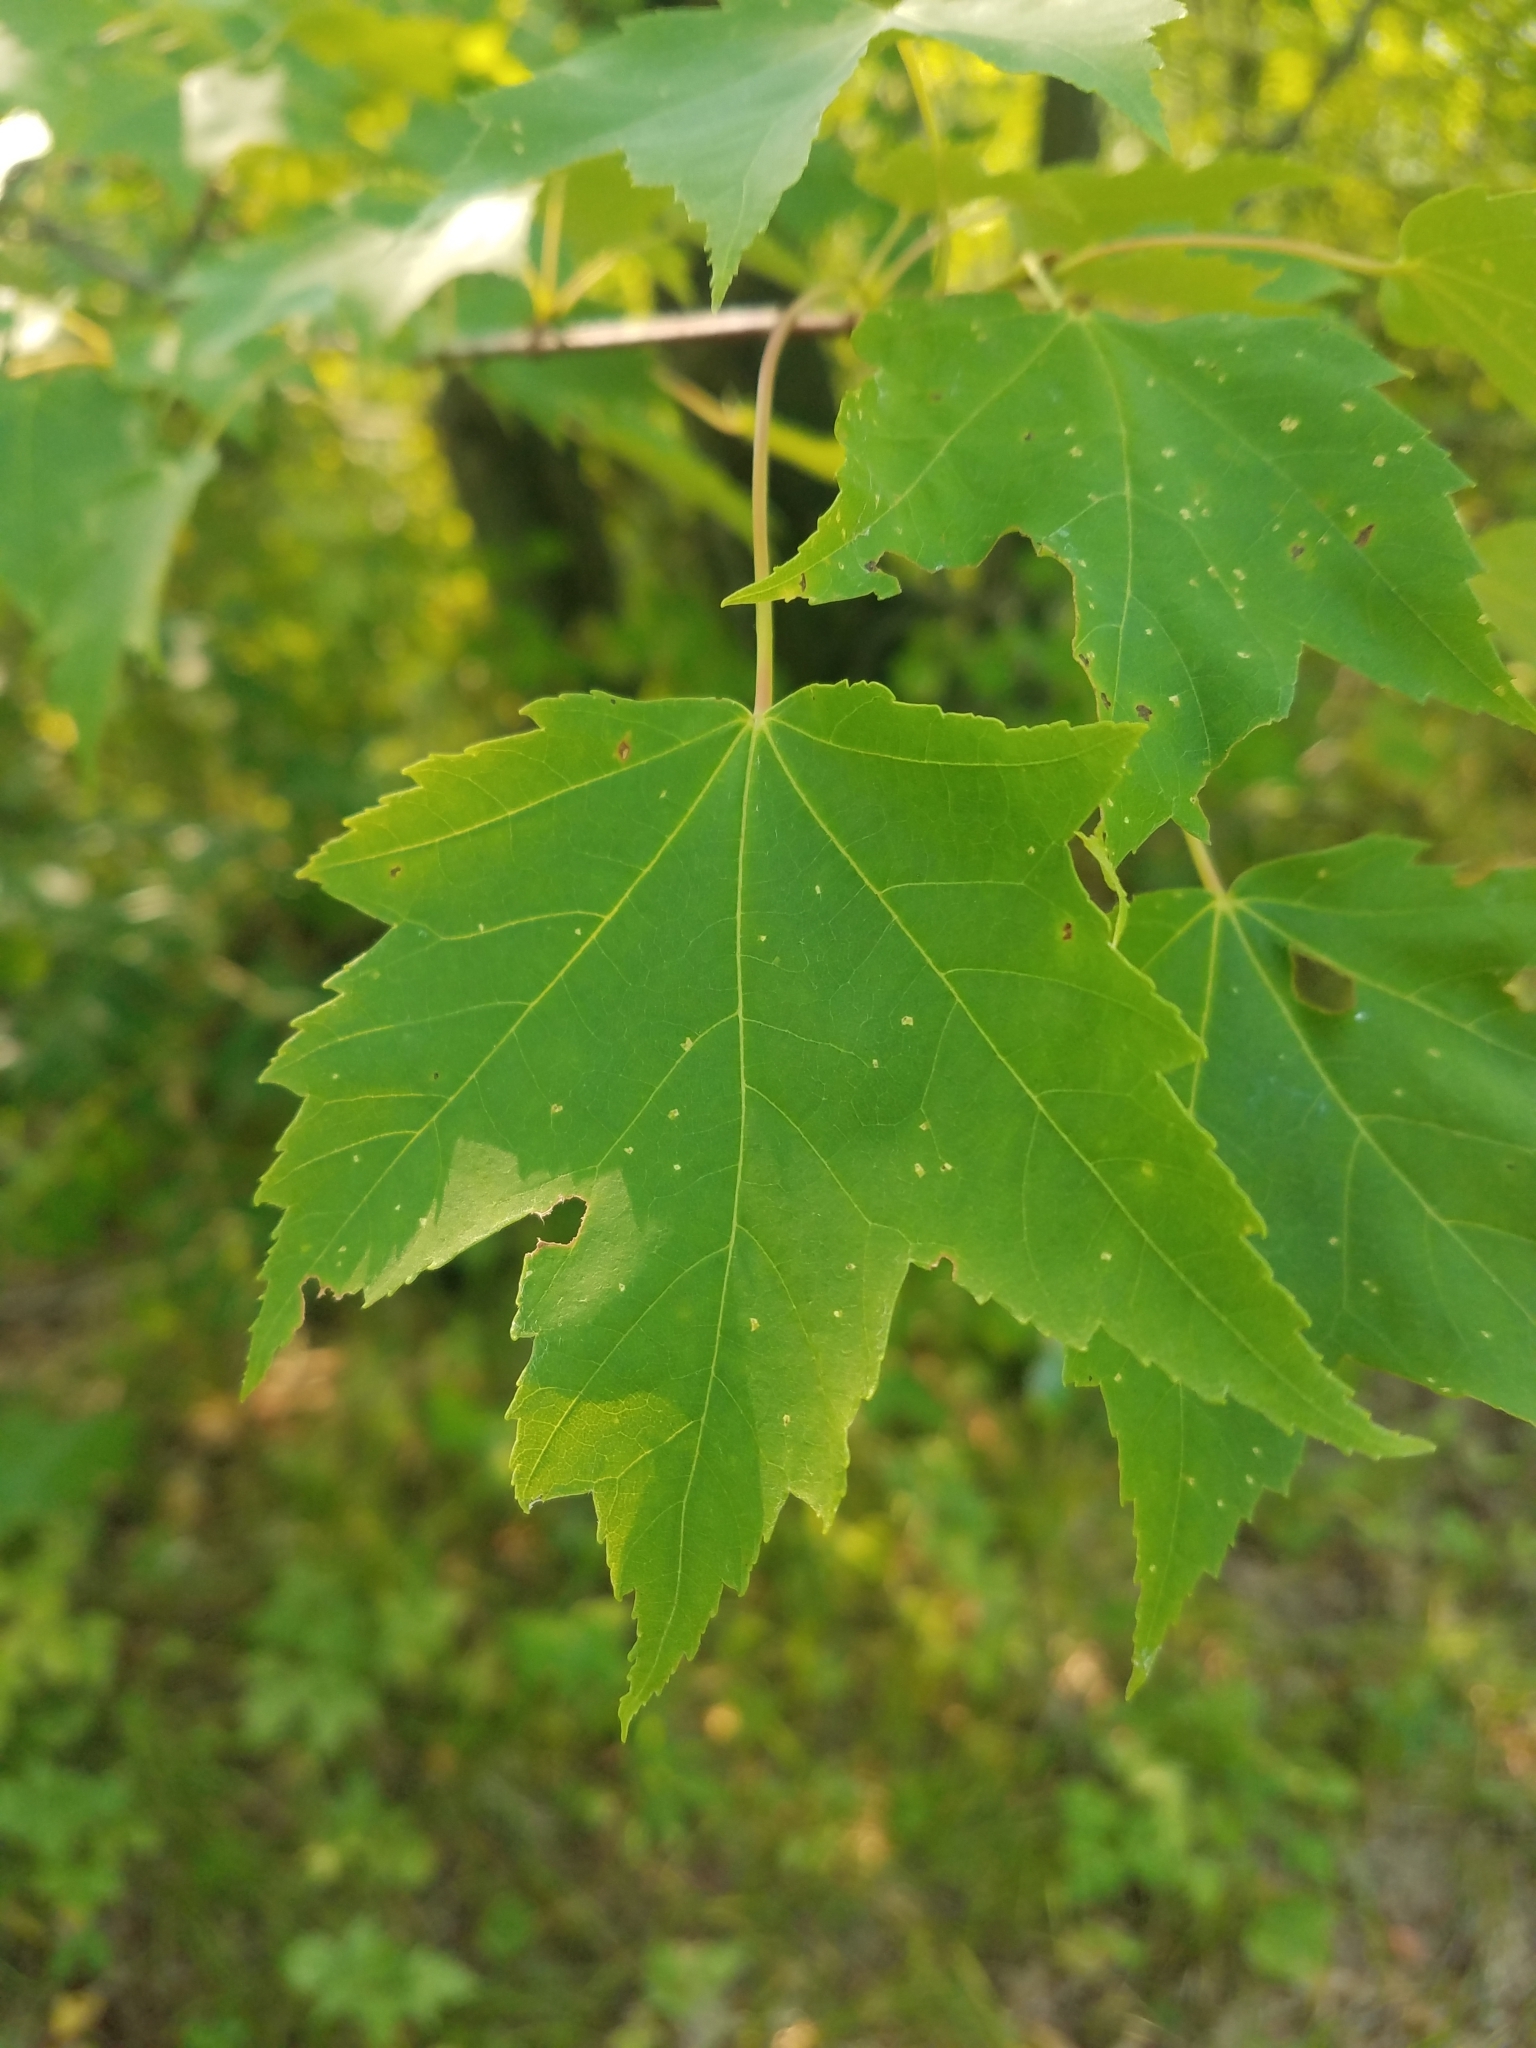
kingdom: Plantae
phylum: Tracheophyta
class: Magnoliopsida
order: Sapindales
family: Sapindaceae
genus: Acer
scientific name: Acer rubrum
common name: Red maple
